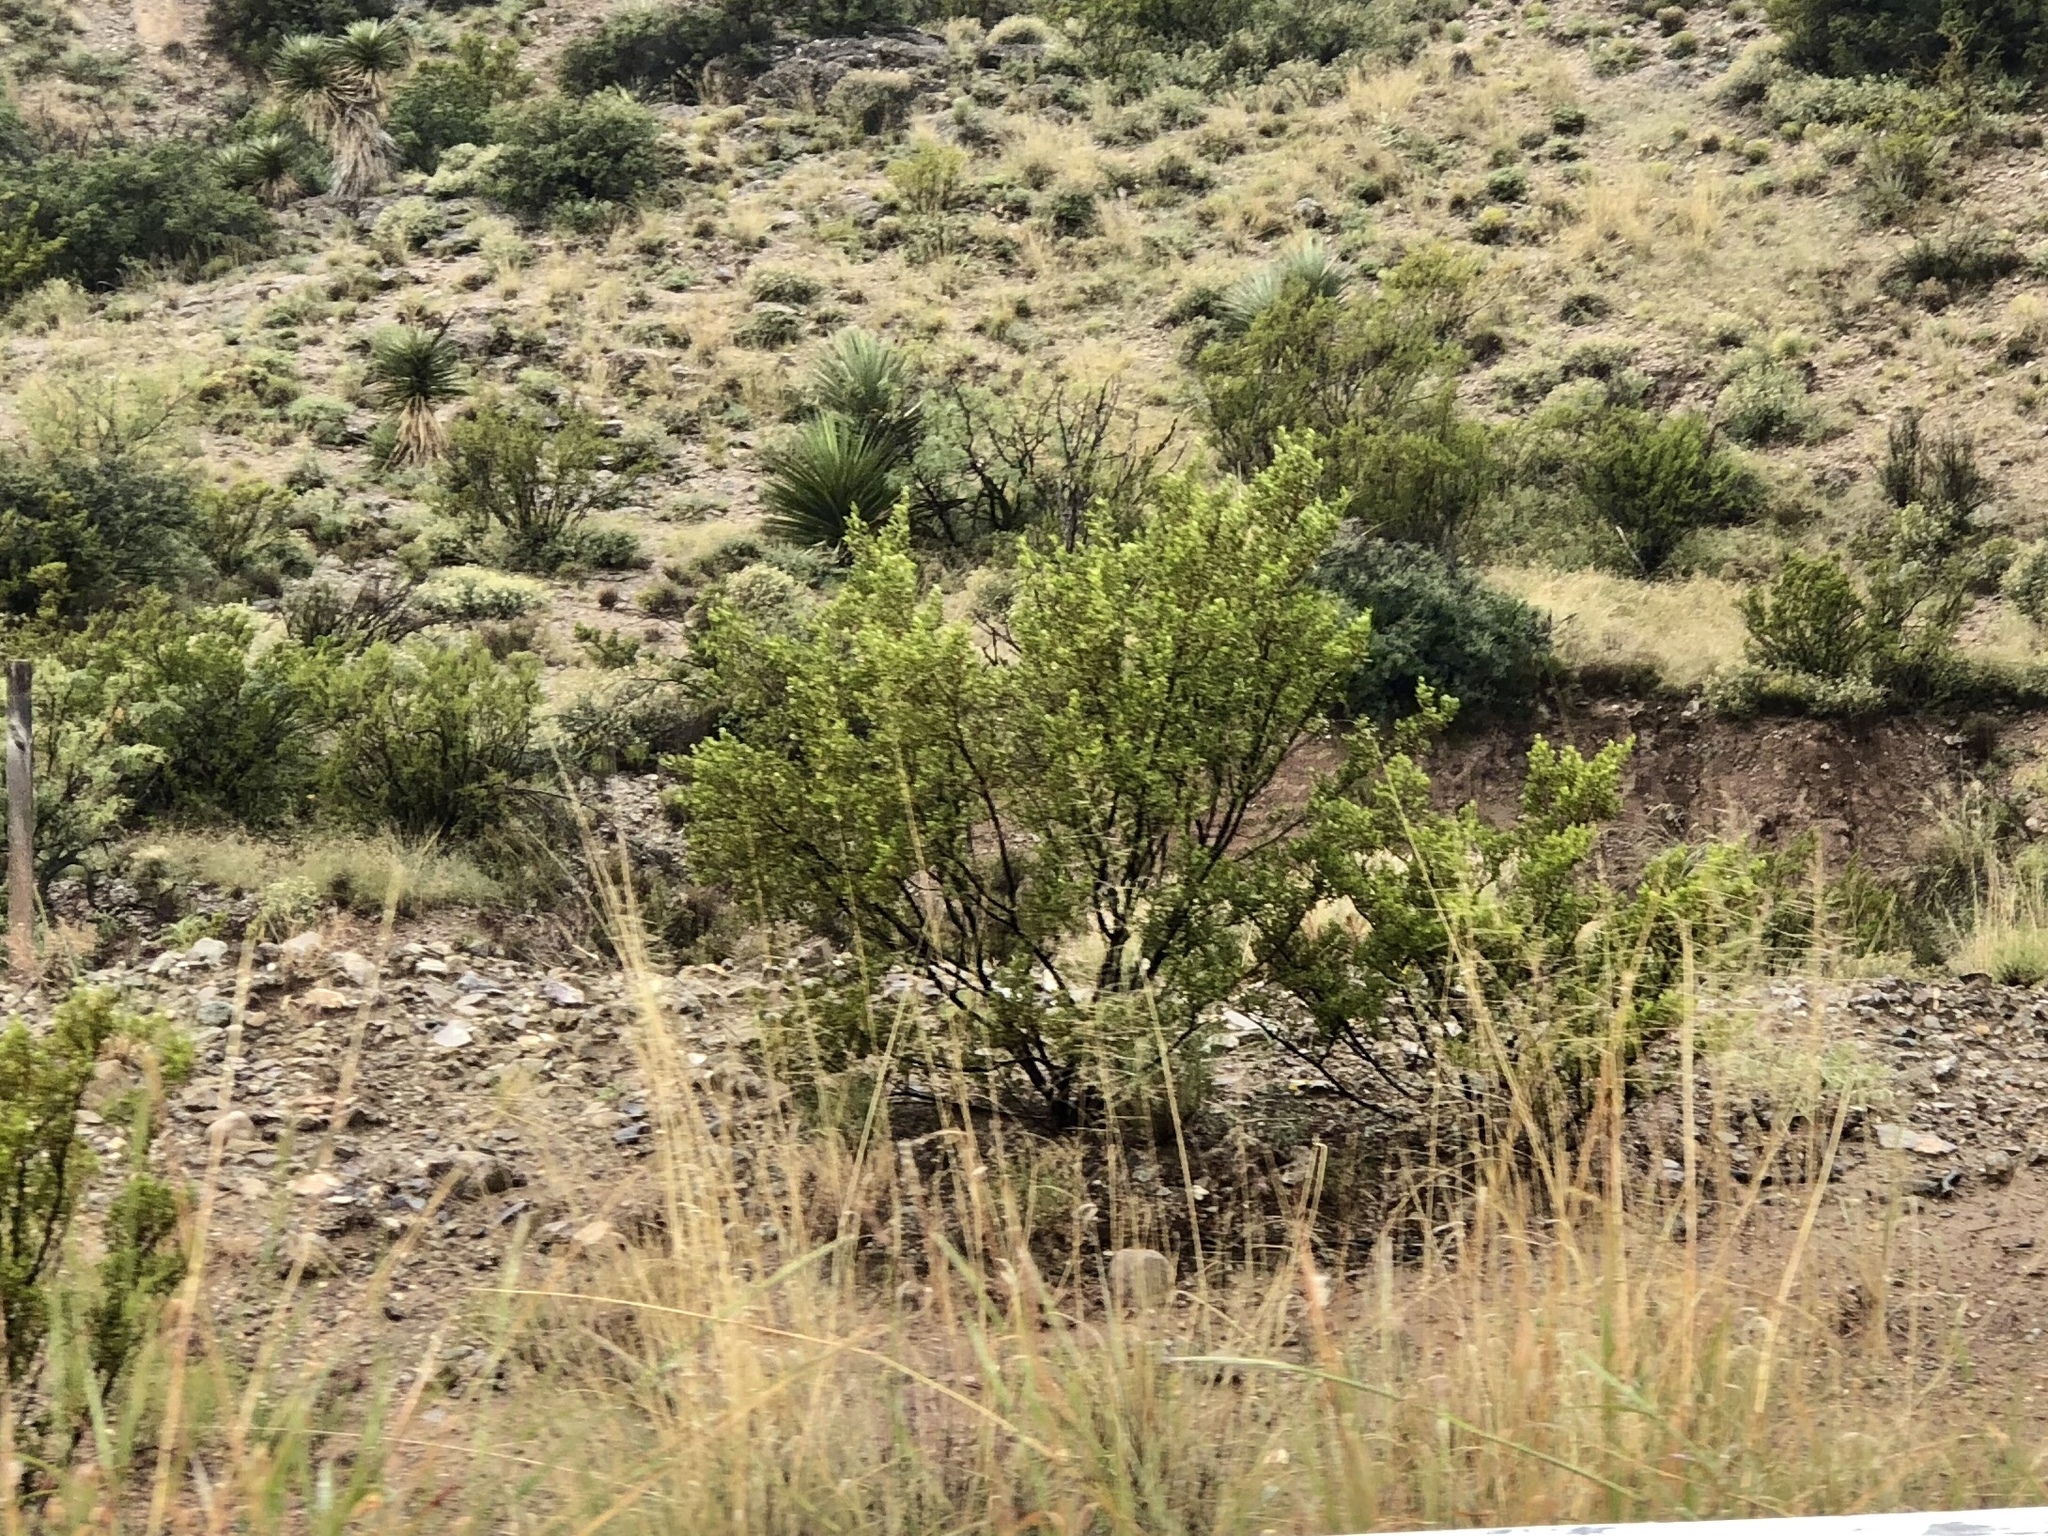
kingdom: Plantae
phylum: Tracheophyta
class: Magnoliopsida
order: Zygophyllales
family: Zygophyllaceae
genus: Larrea
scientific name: Larrea tridentata
